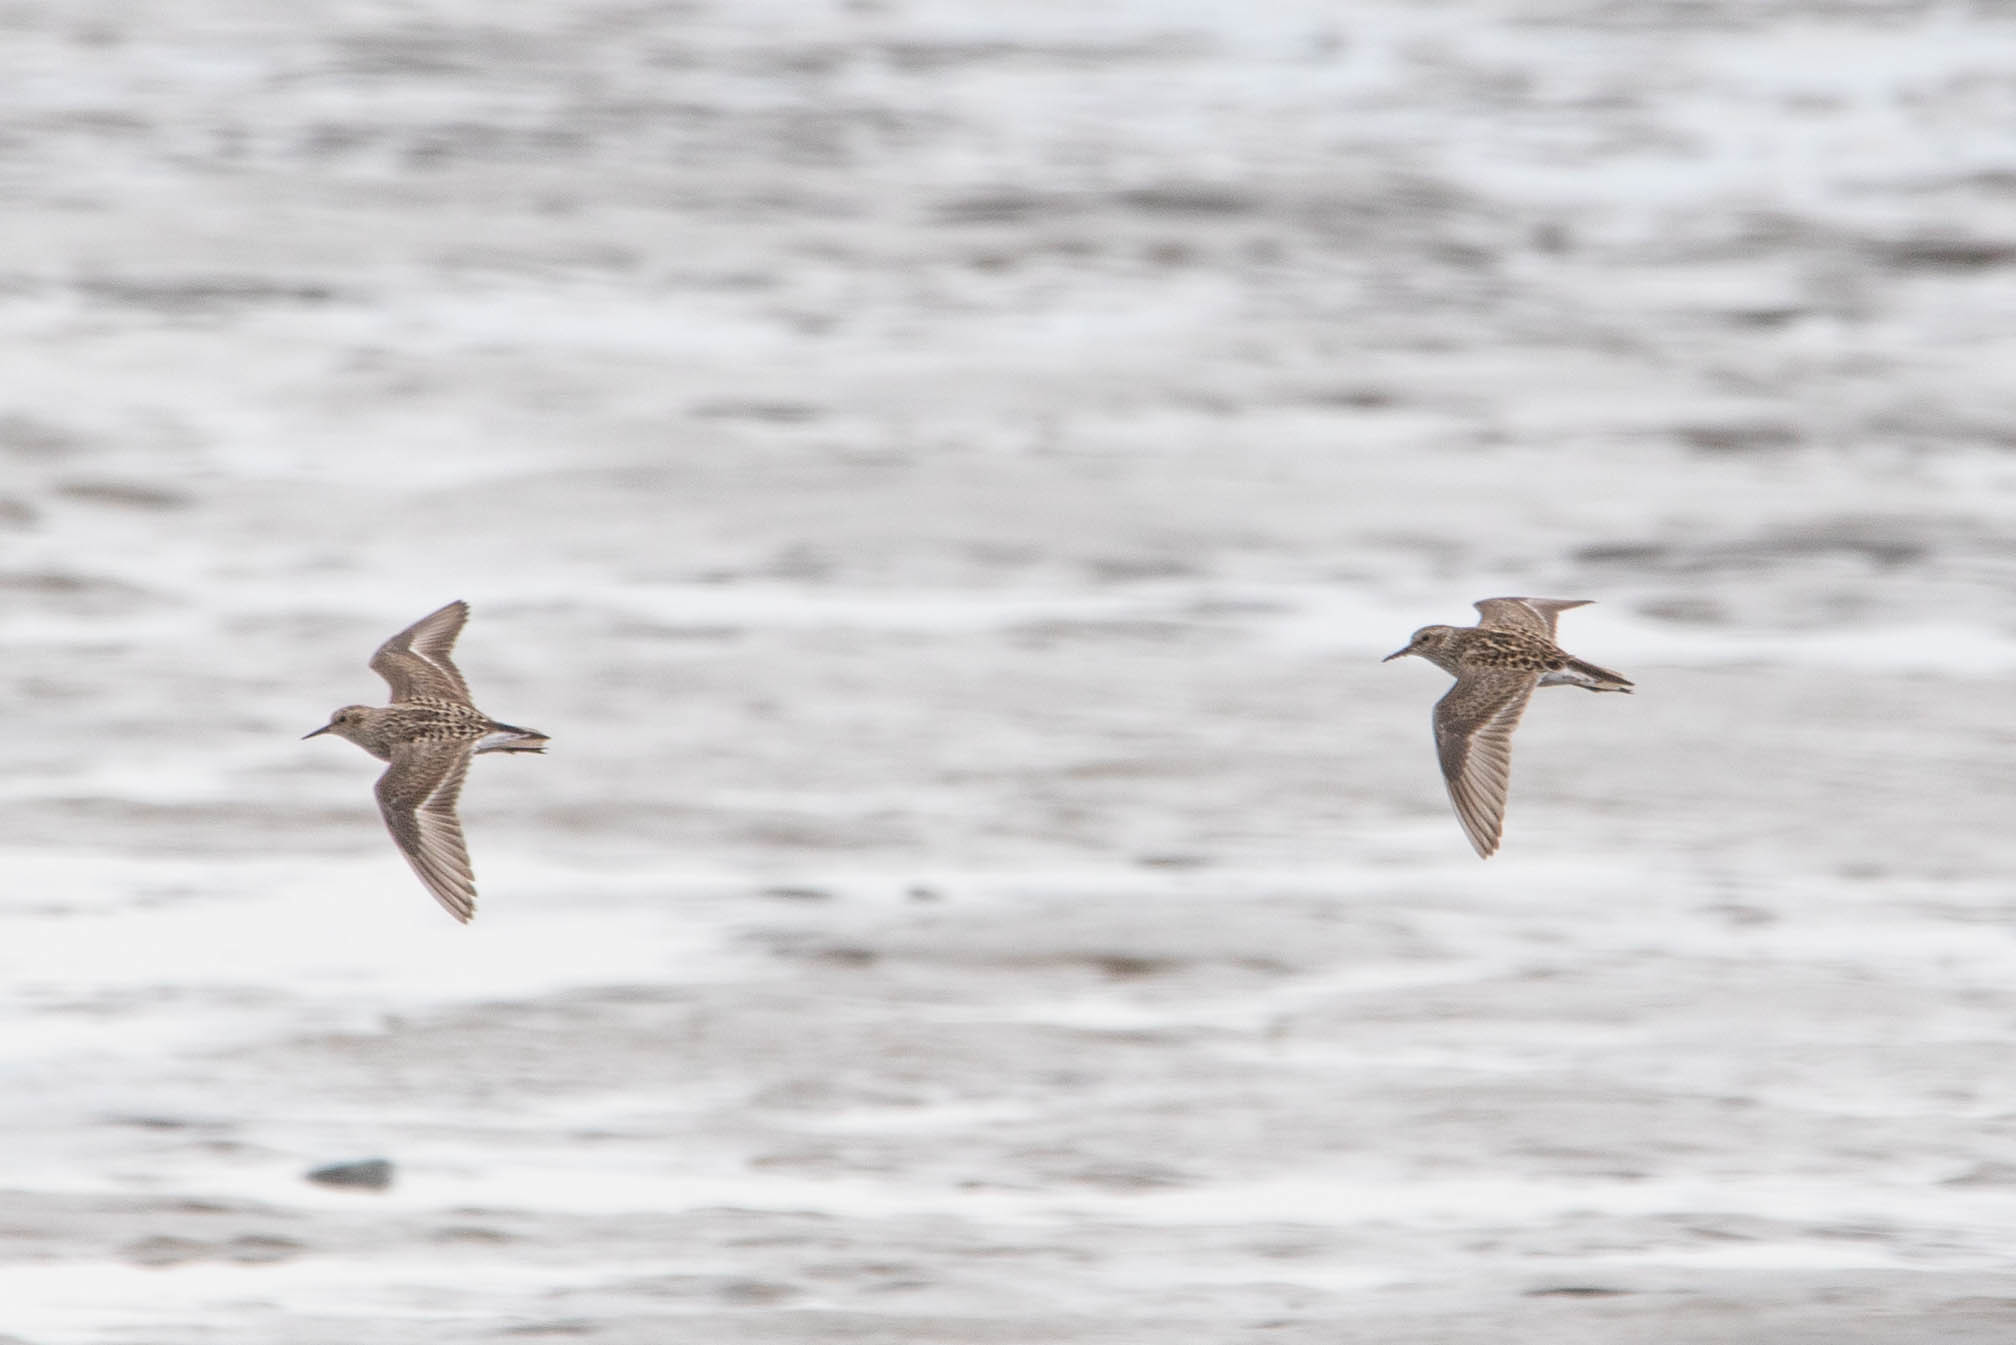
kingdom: Animalia
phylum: Chordata
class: Aves
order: Charadriiformes
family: Scolopacidae
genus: Calidris
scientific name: Calidris minutilla
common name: Least sandpiper
